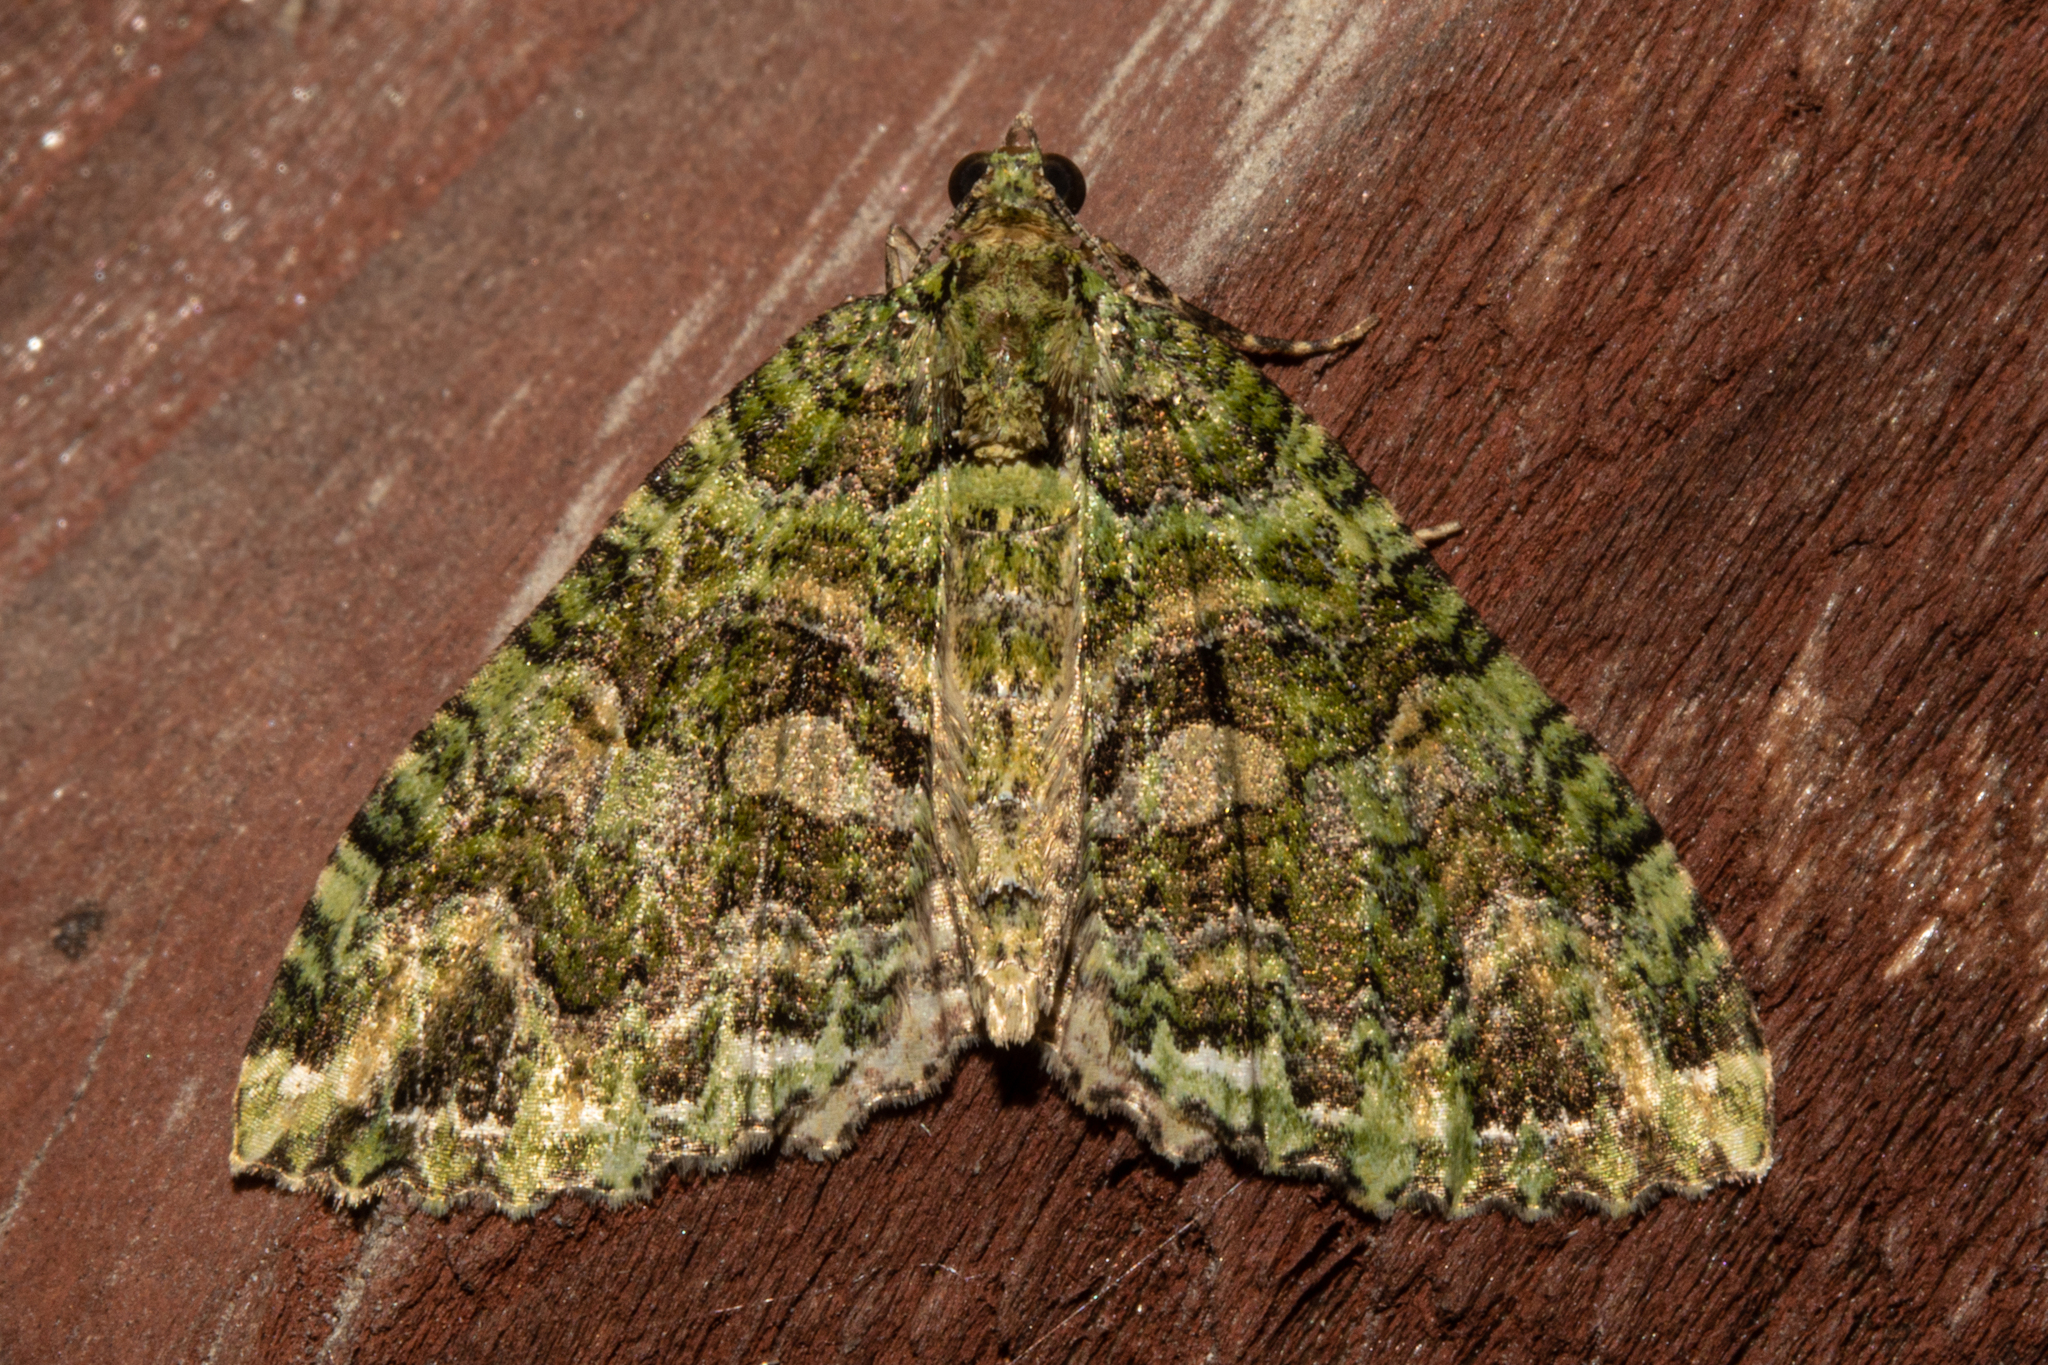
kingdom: Animalia
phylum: Arthropoda
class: Insecta
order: Lepidoptera
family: Geometridae
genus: Austrocidaria
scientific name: Austrocidaria similata
